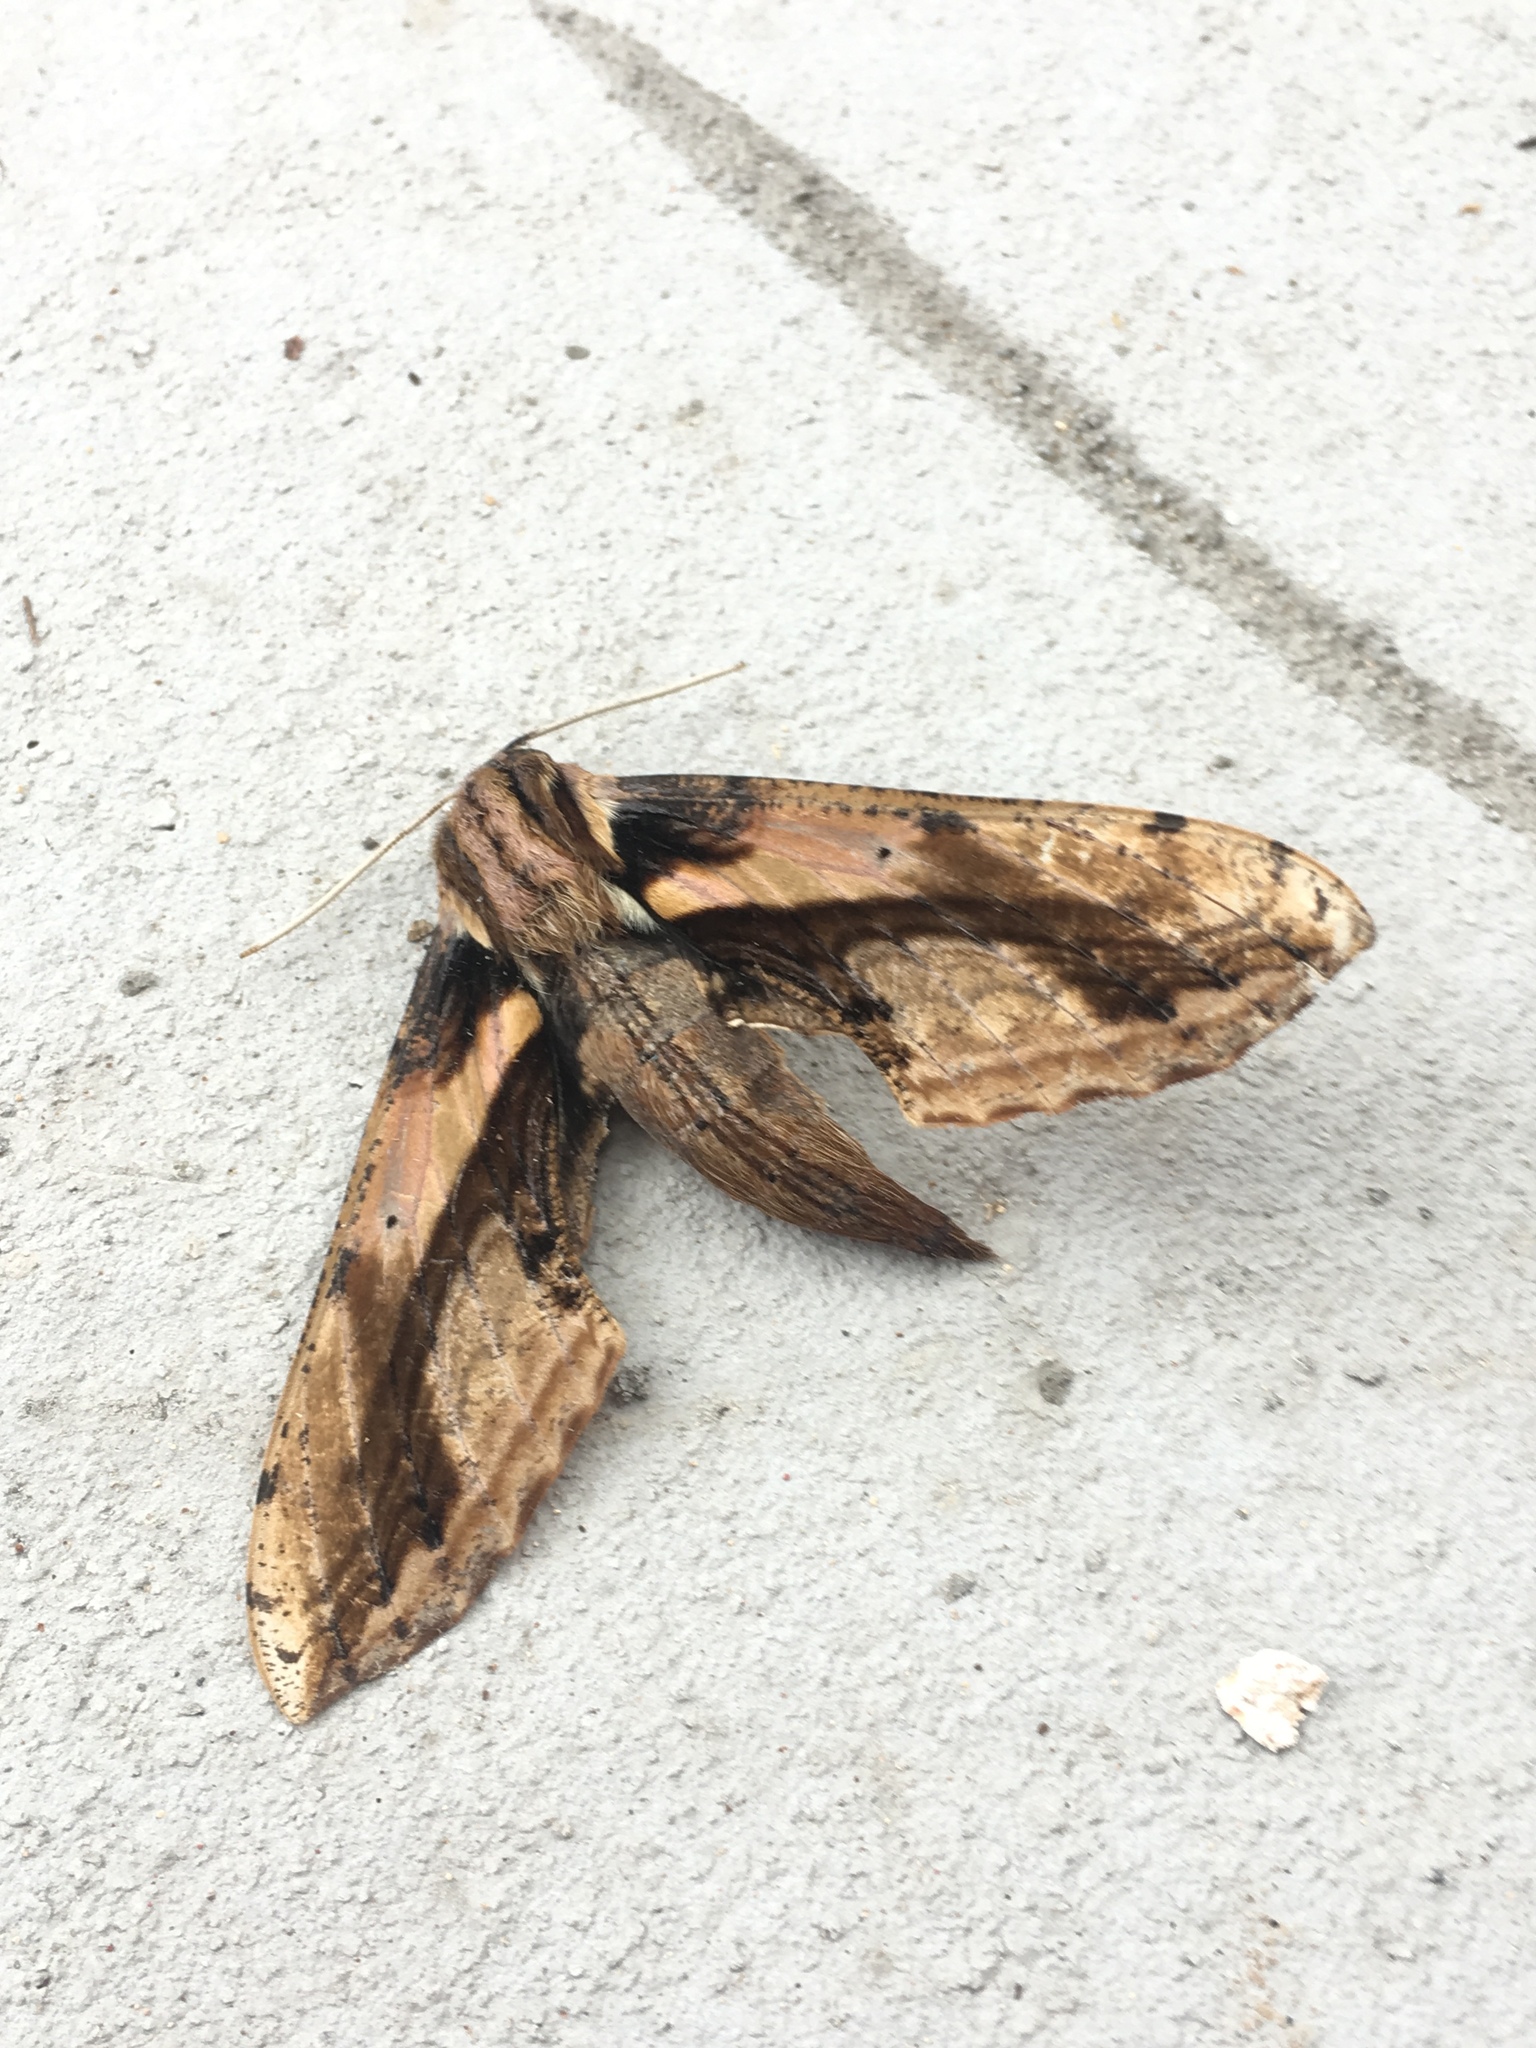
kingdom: Animalia
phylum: Arthropoda
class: Insecta
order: Lepidoptera
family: Sphingidae
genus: Xylophanes
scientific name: Xylophanes ceratomioides
